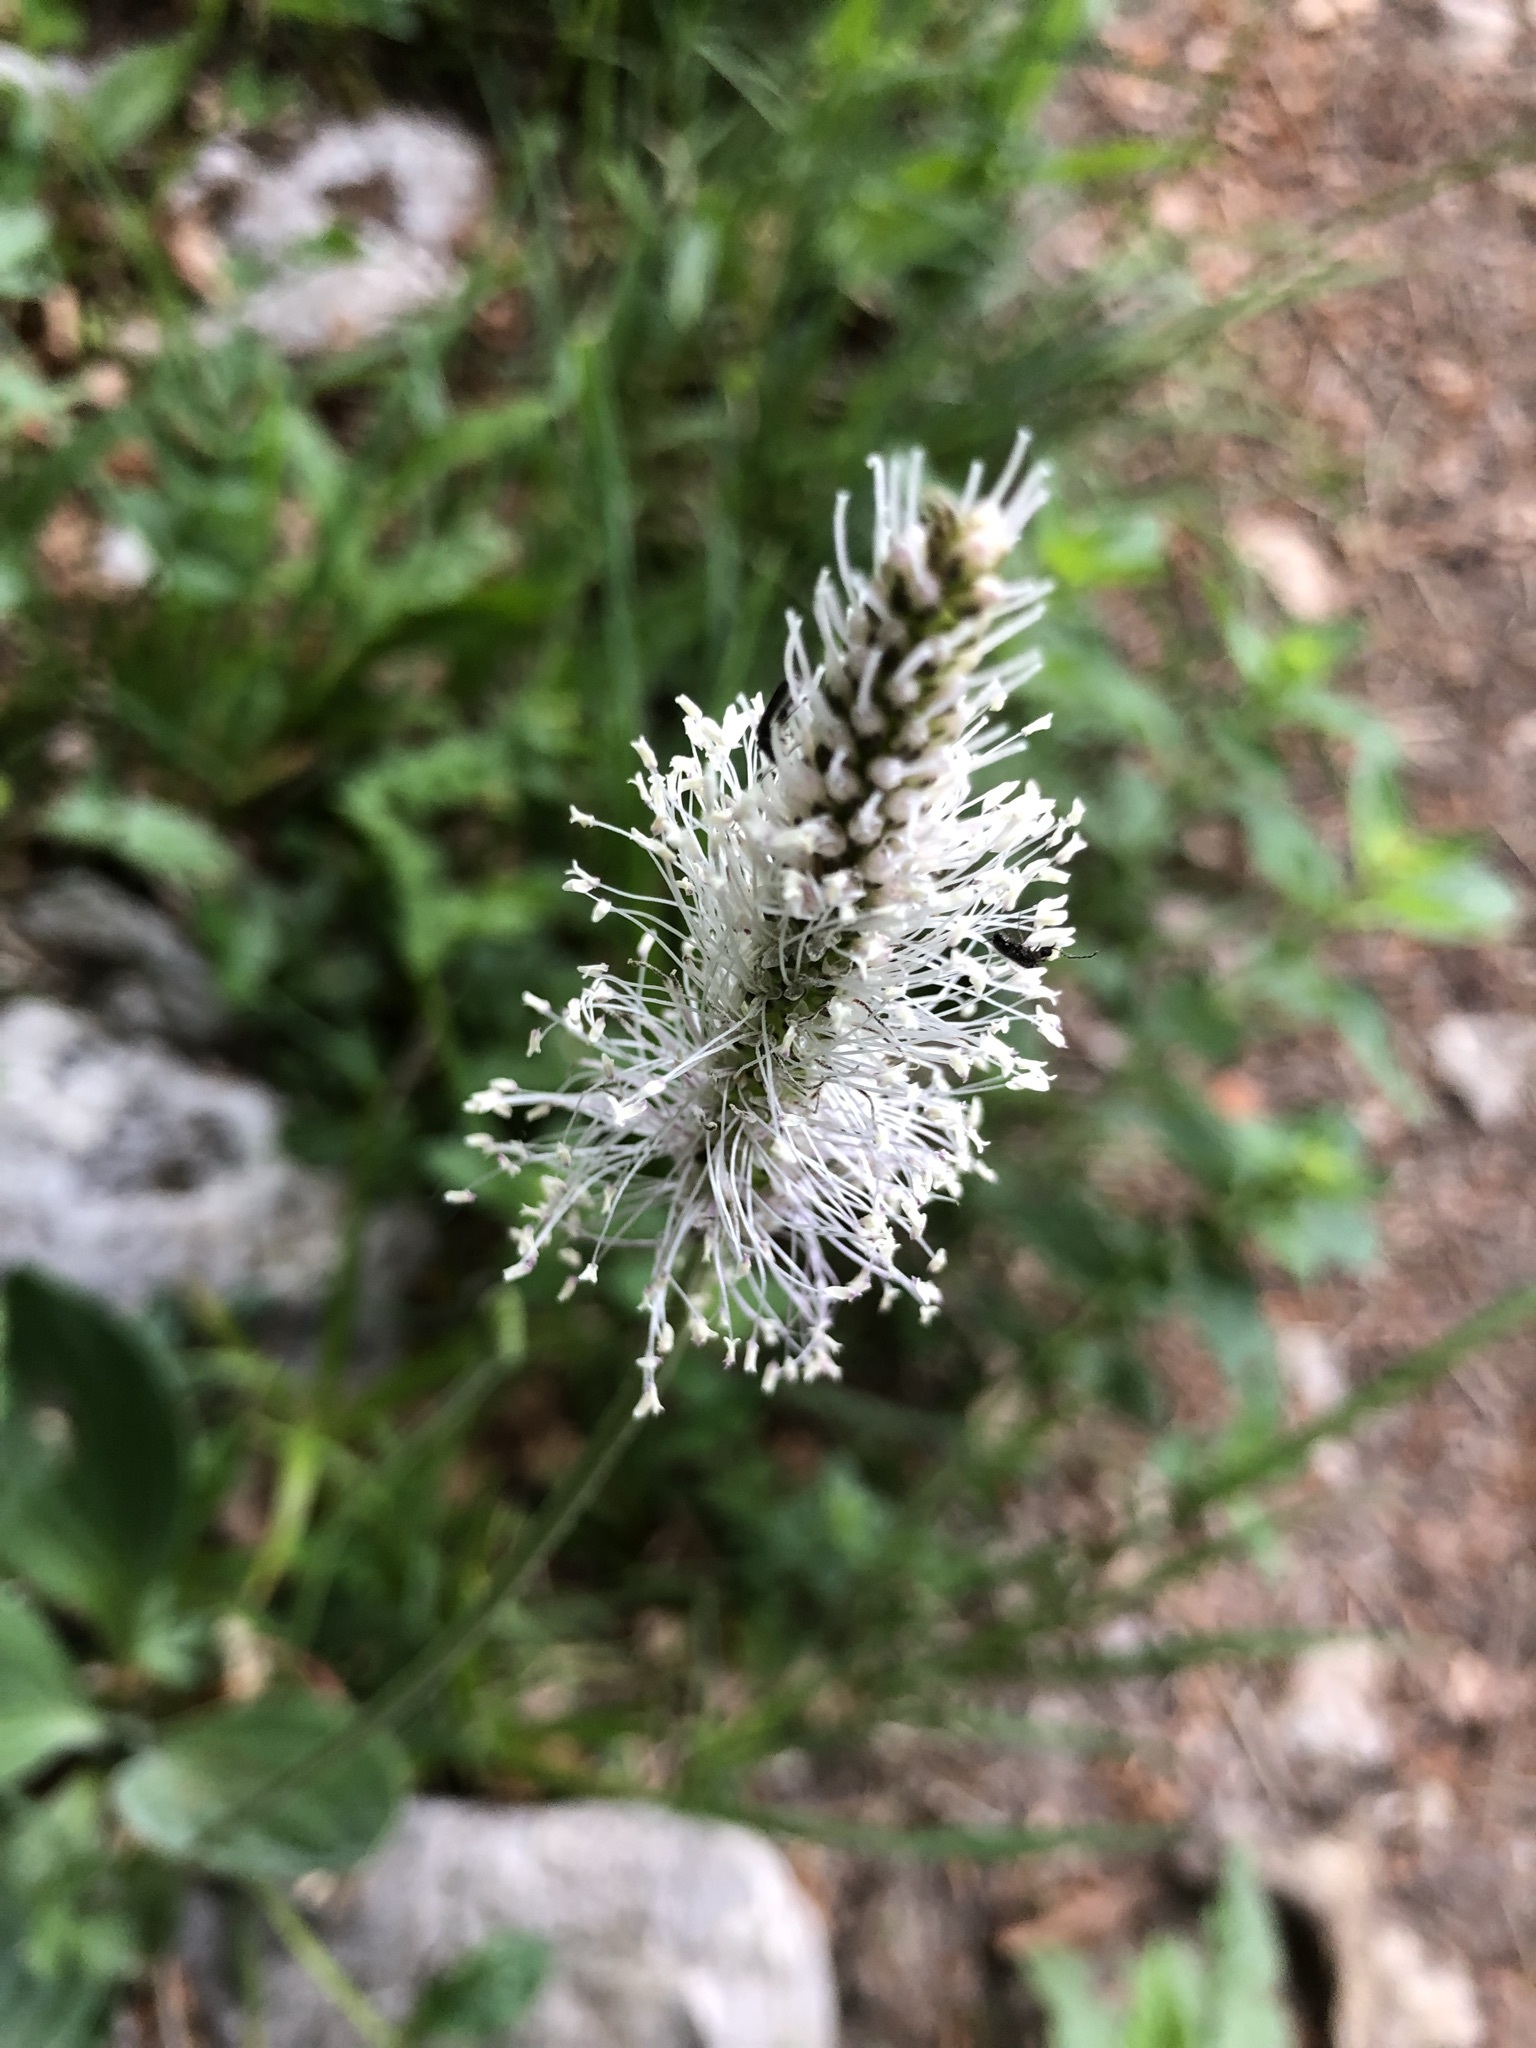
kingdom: Plantae
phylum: Tracheophyta
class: Magnoliopsida
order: Lamiales
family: Plantaginaceae
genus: Plantago
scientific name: Plantago media
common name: Hoary plantain
